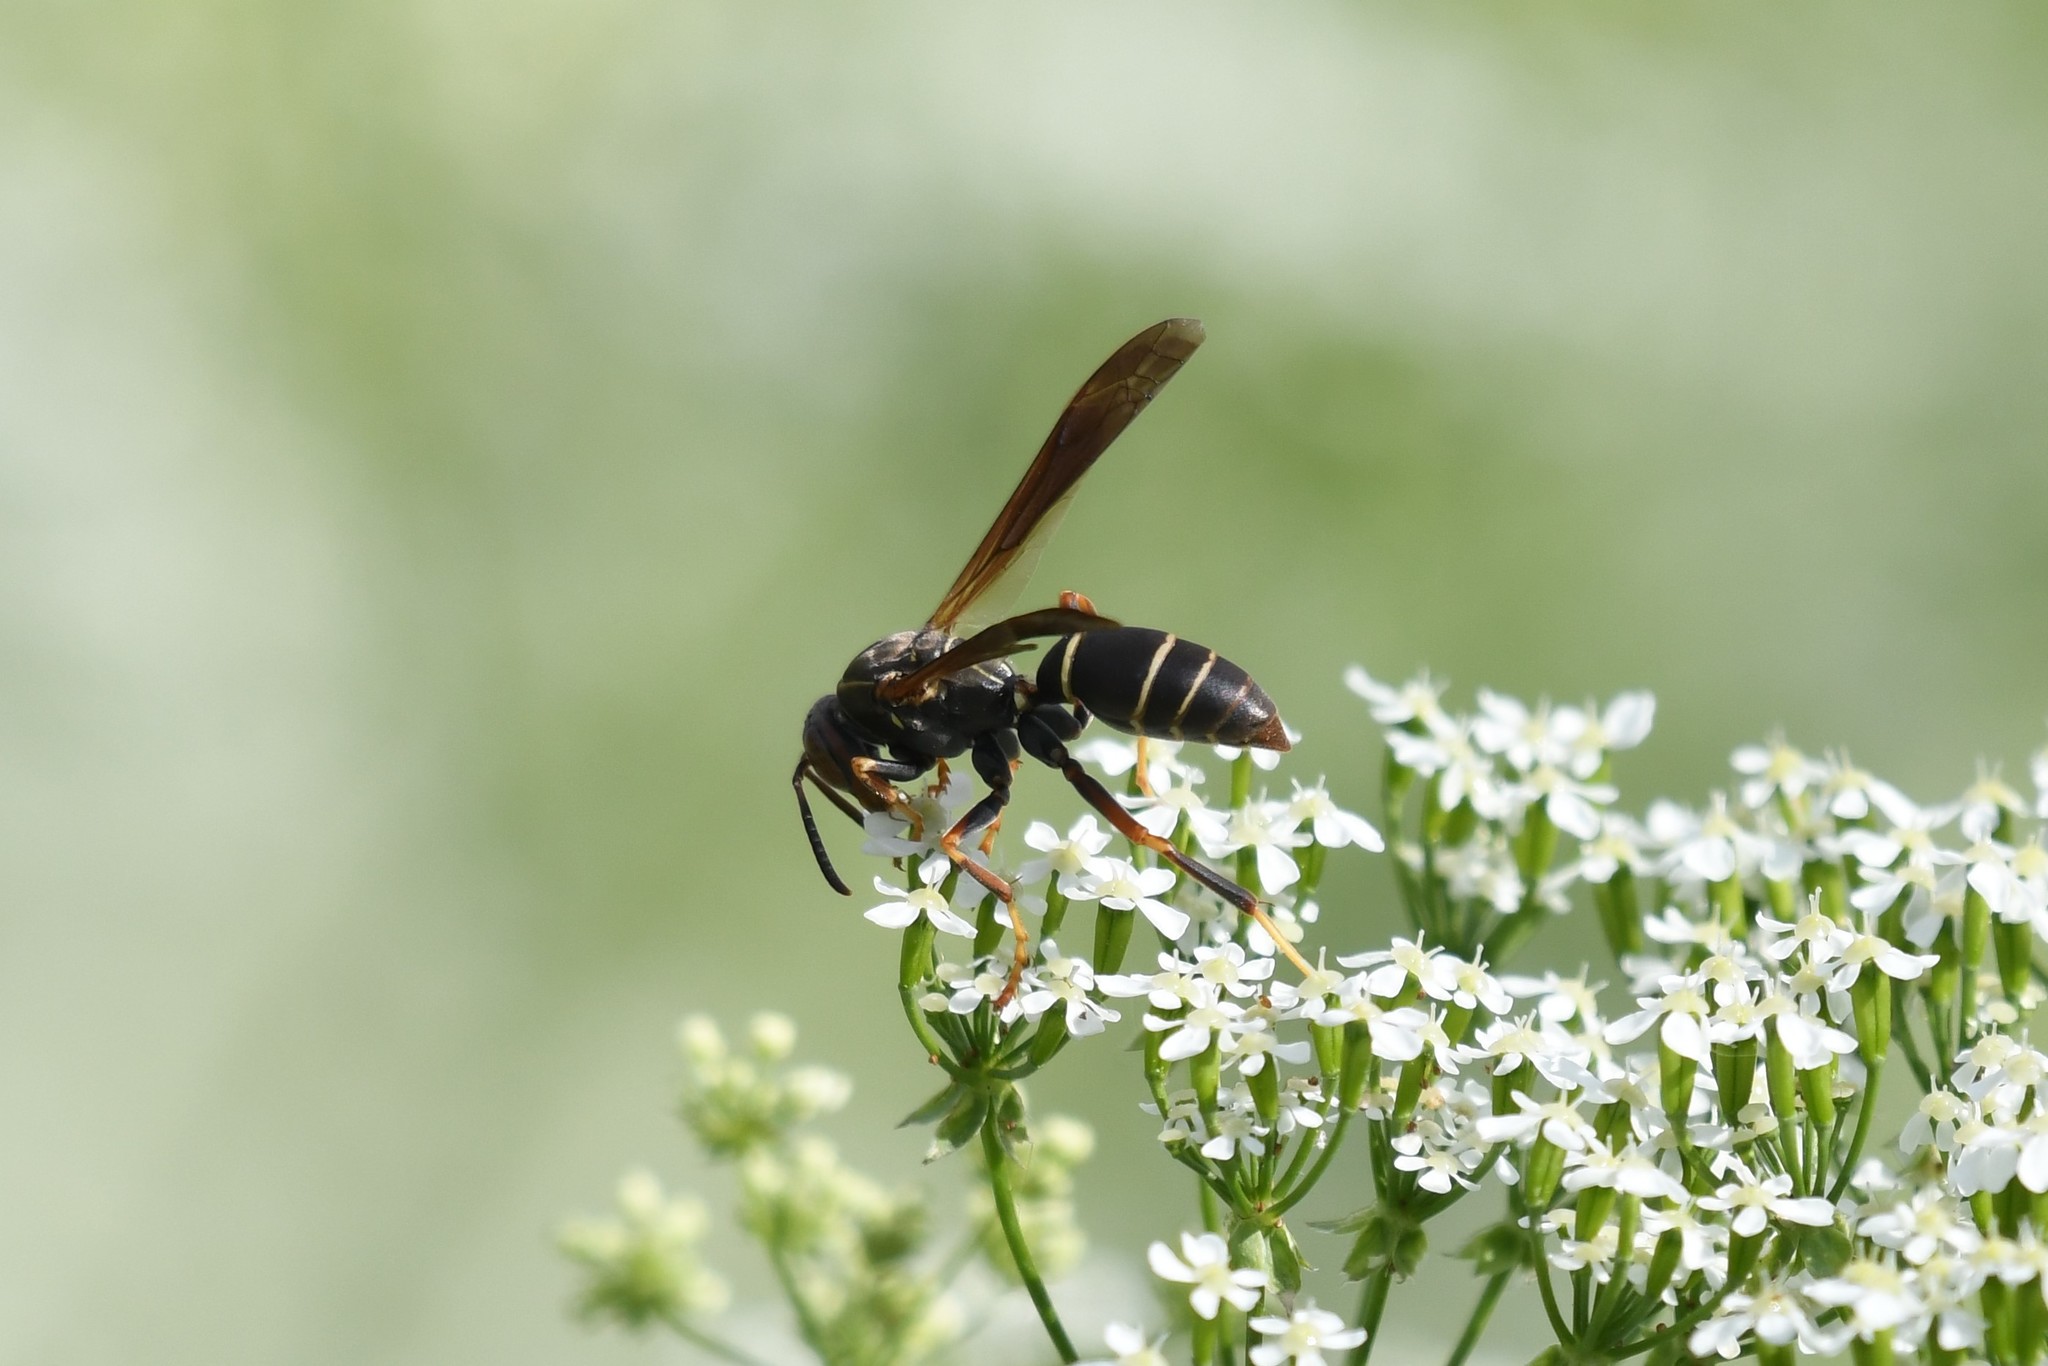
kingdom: Animalia
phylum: Arthropoda
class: Insecta
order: Hymenoptera
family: Eumenidae
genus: Polistes
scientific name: Polistes fuscatus
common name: Dark paper wasp
